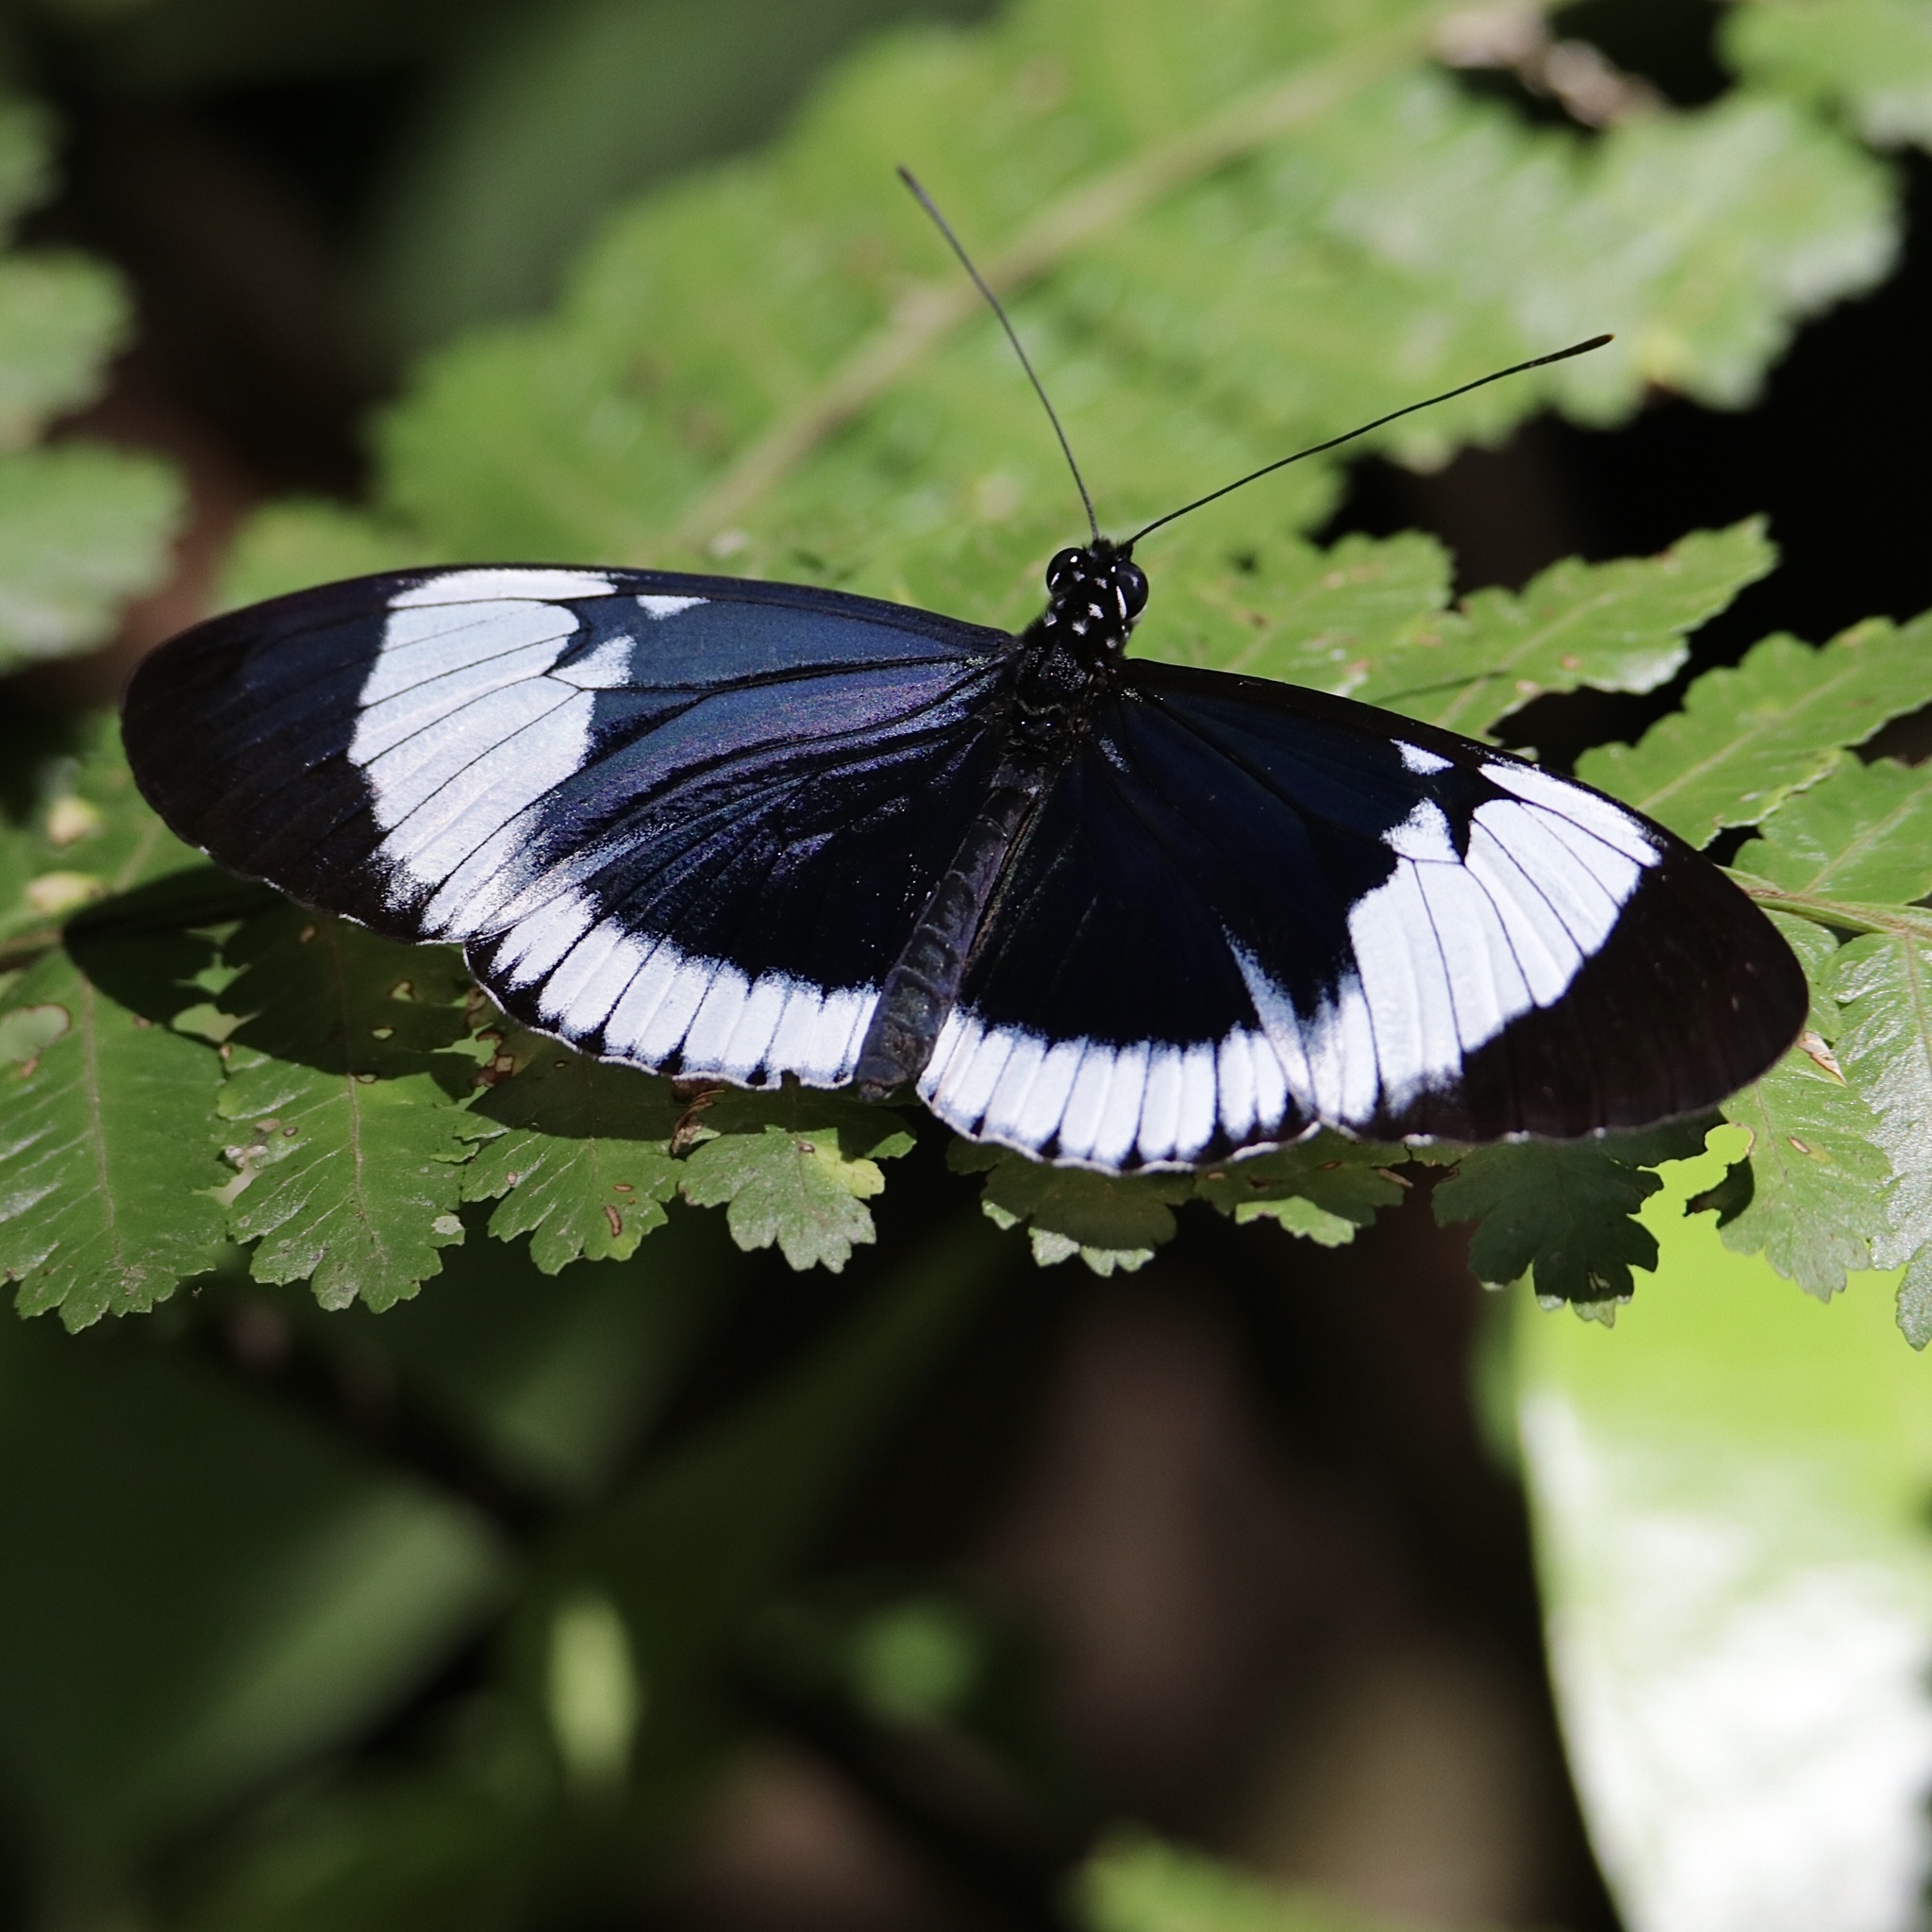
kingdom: Animalia
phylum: Arthropoda
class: Insecta
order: Lepidoptera
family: Nymphalidae
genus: Heliconius
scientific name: Heliconius cydno
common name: Cydno longwing
